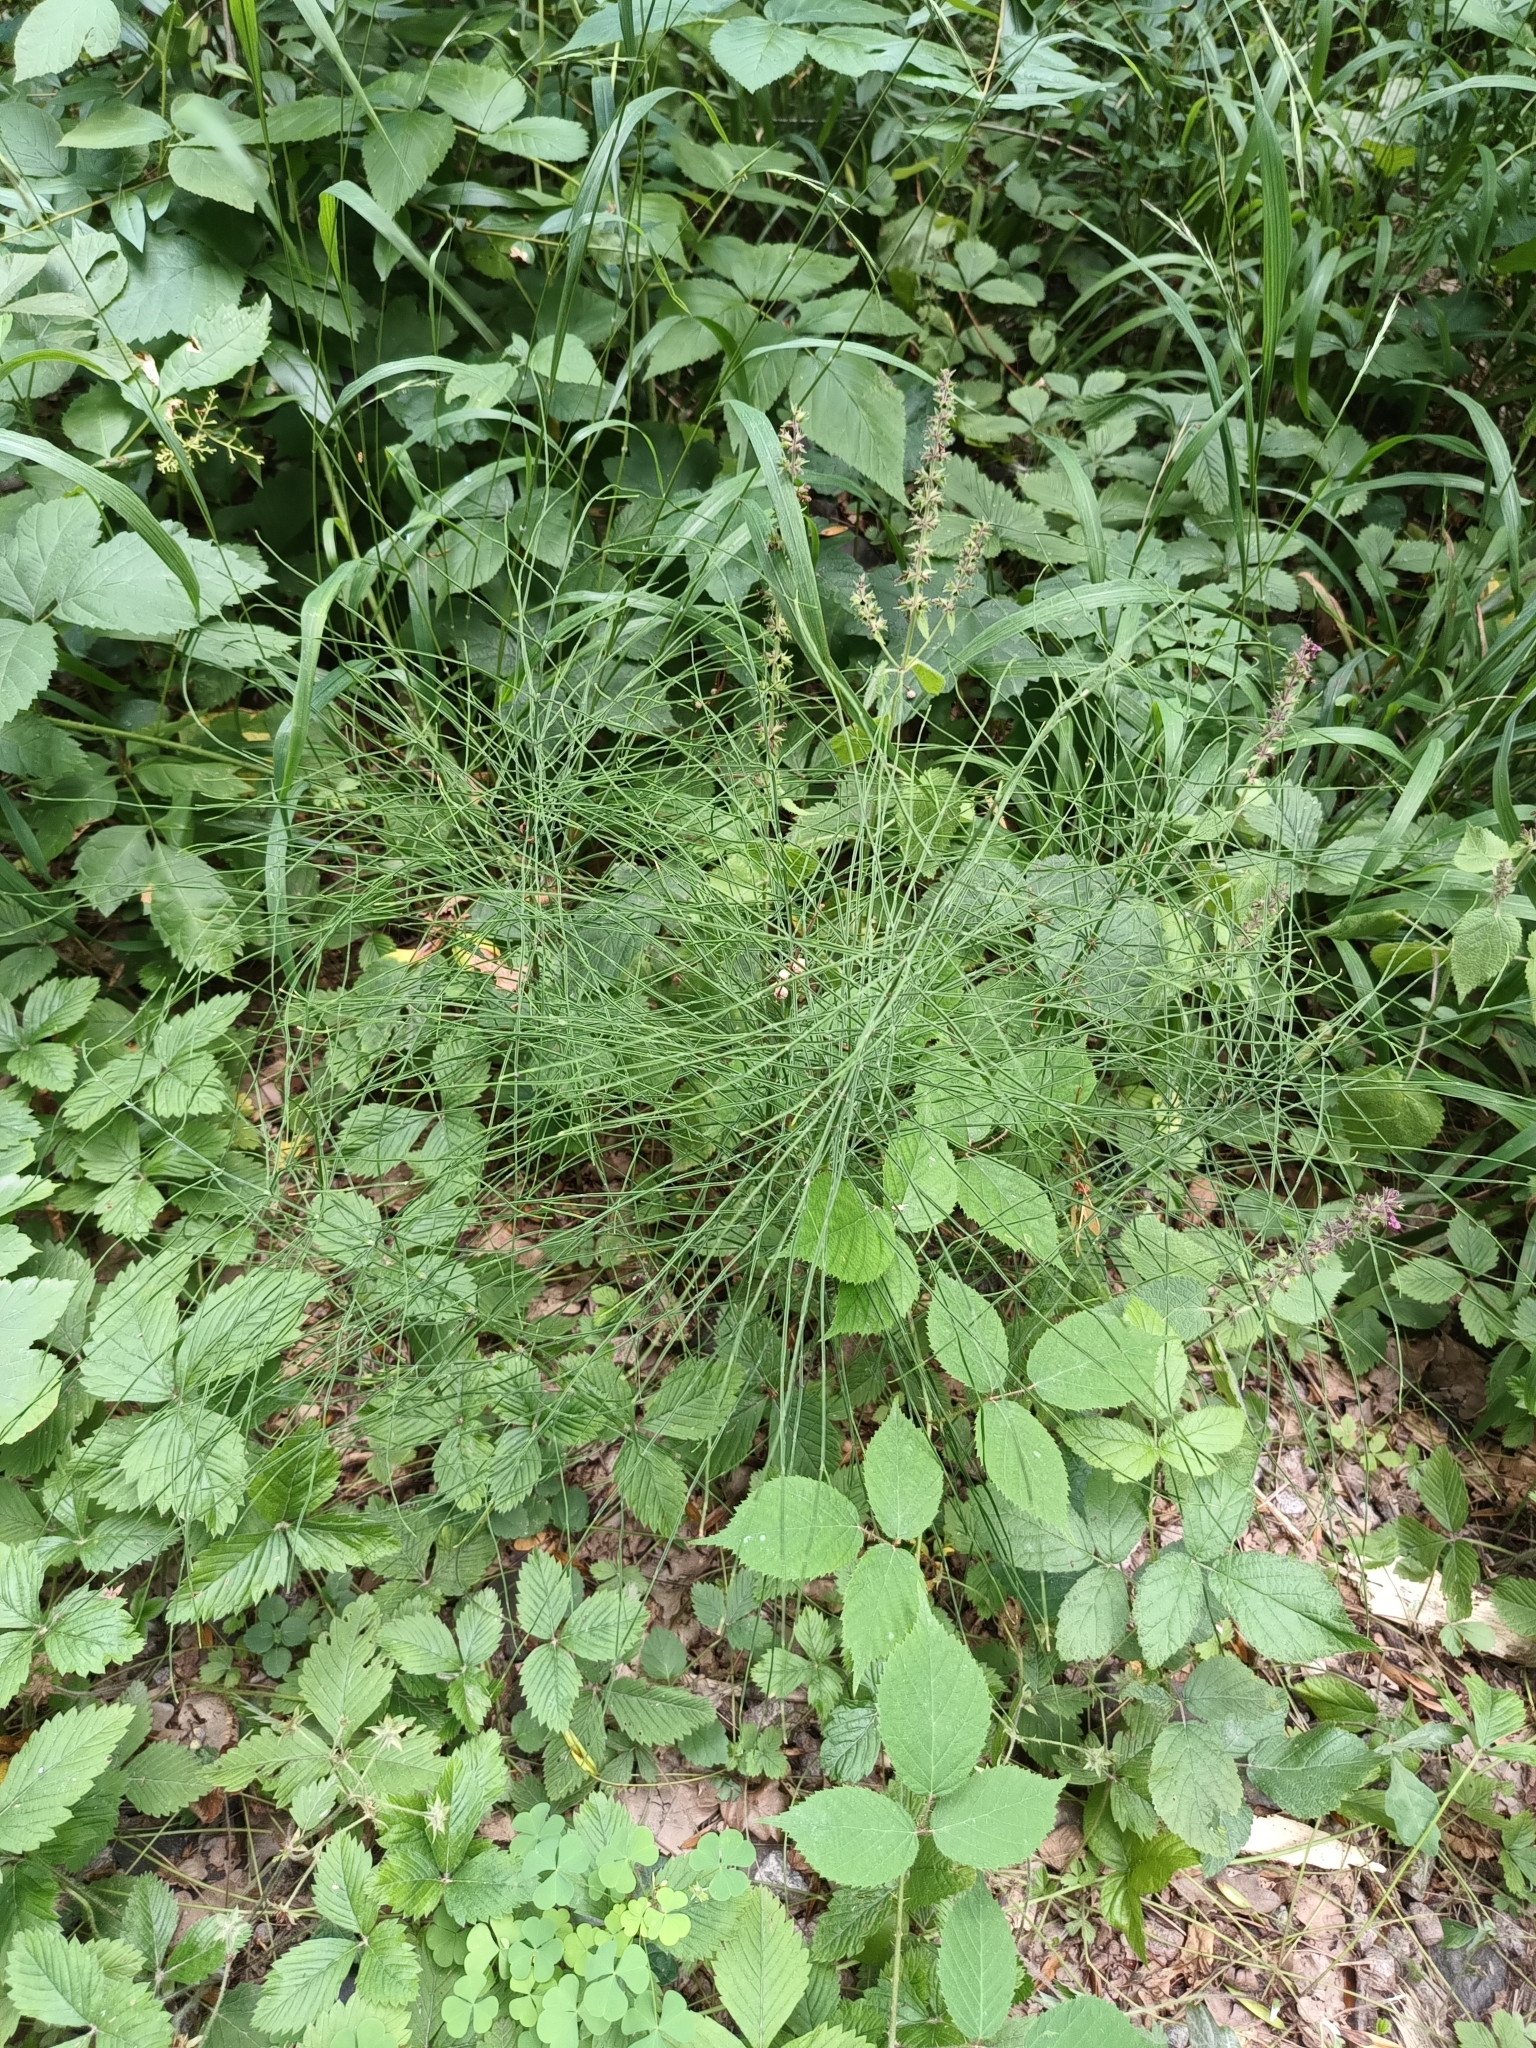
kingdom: Plantae
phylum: Tracheophyta
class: Polypodiopsida
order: Equisetales
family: Equisetaceae
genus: Equisetum
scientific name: Equisetum arvense
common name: Field horsetail
